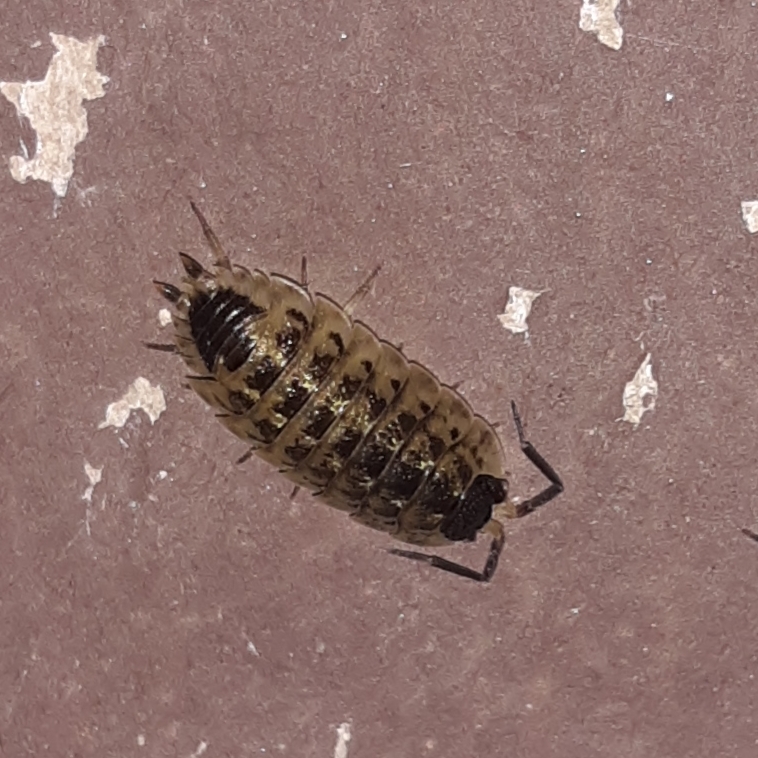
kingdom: Animalia
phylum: Arthropoda
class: Malacostraca
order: Isopoda
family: Porcellionidae
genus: Porcellio
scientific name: Porcellio spinicornis
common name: Painted woodlouse
